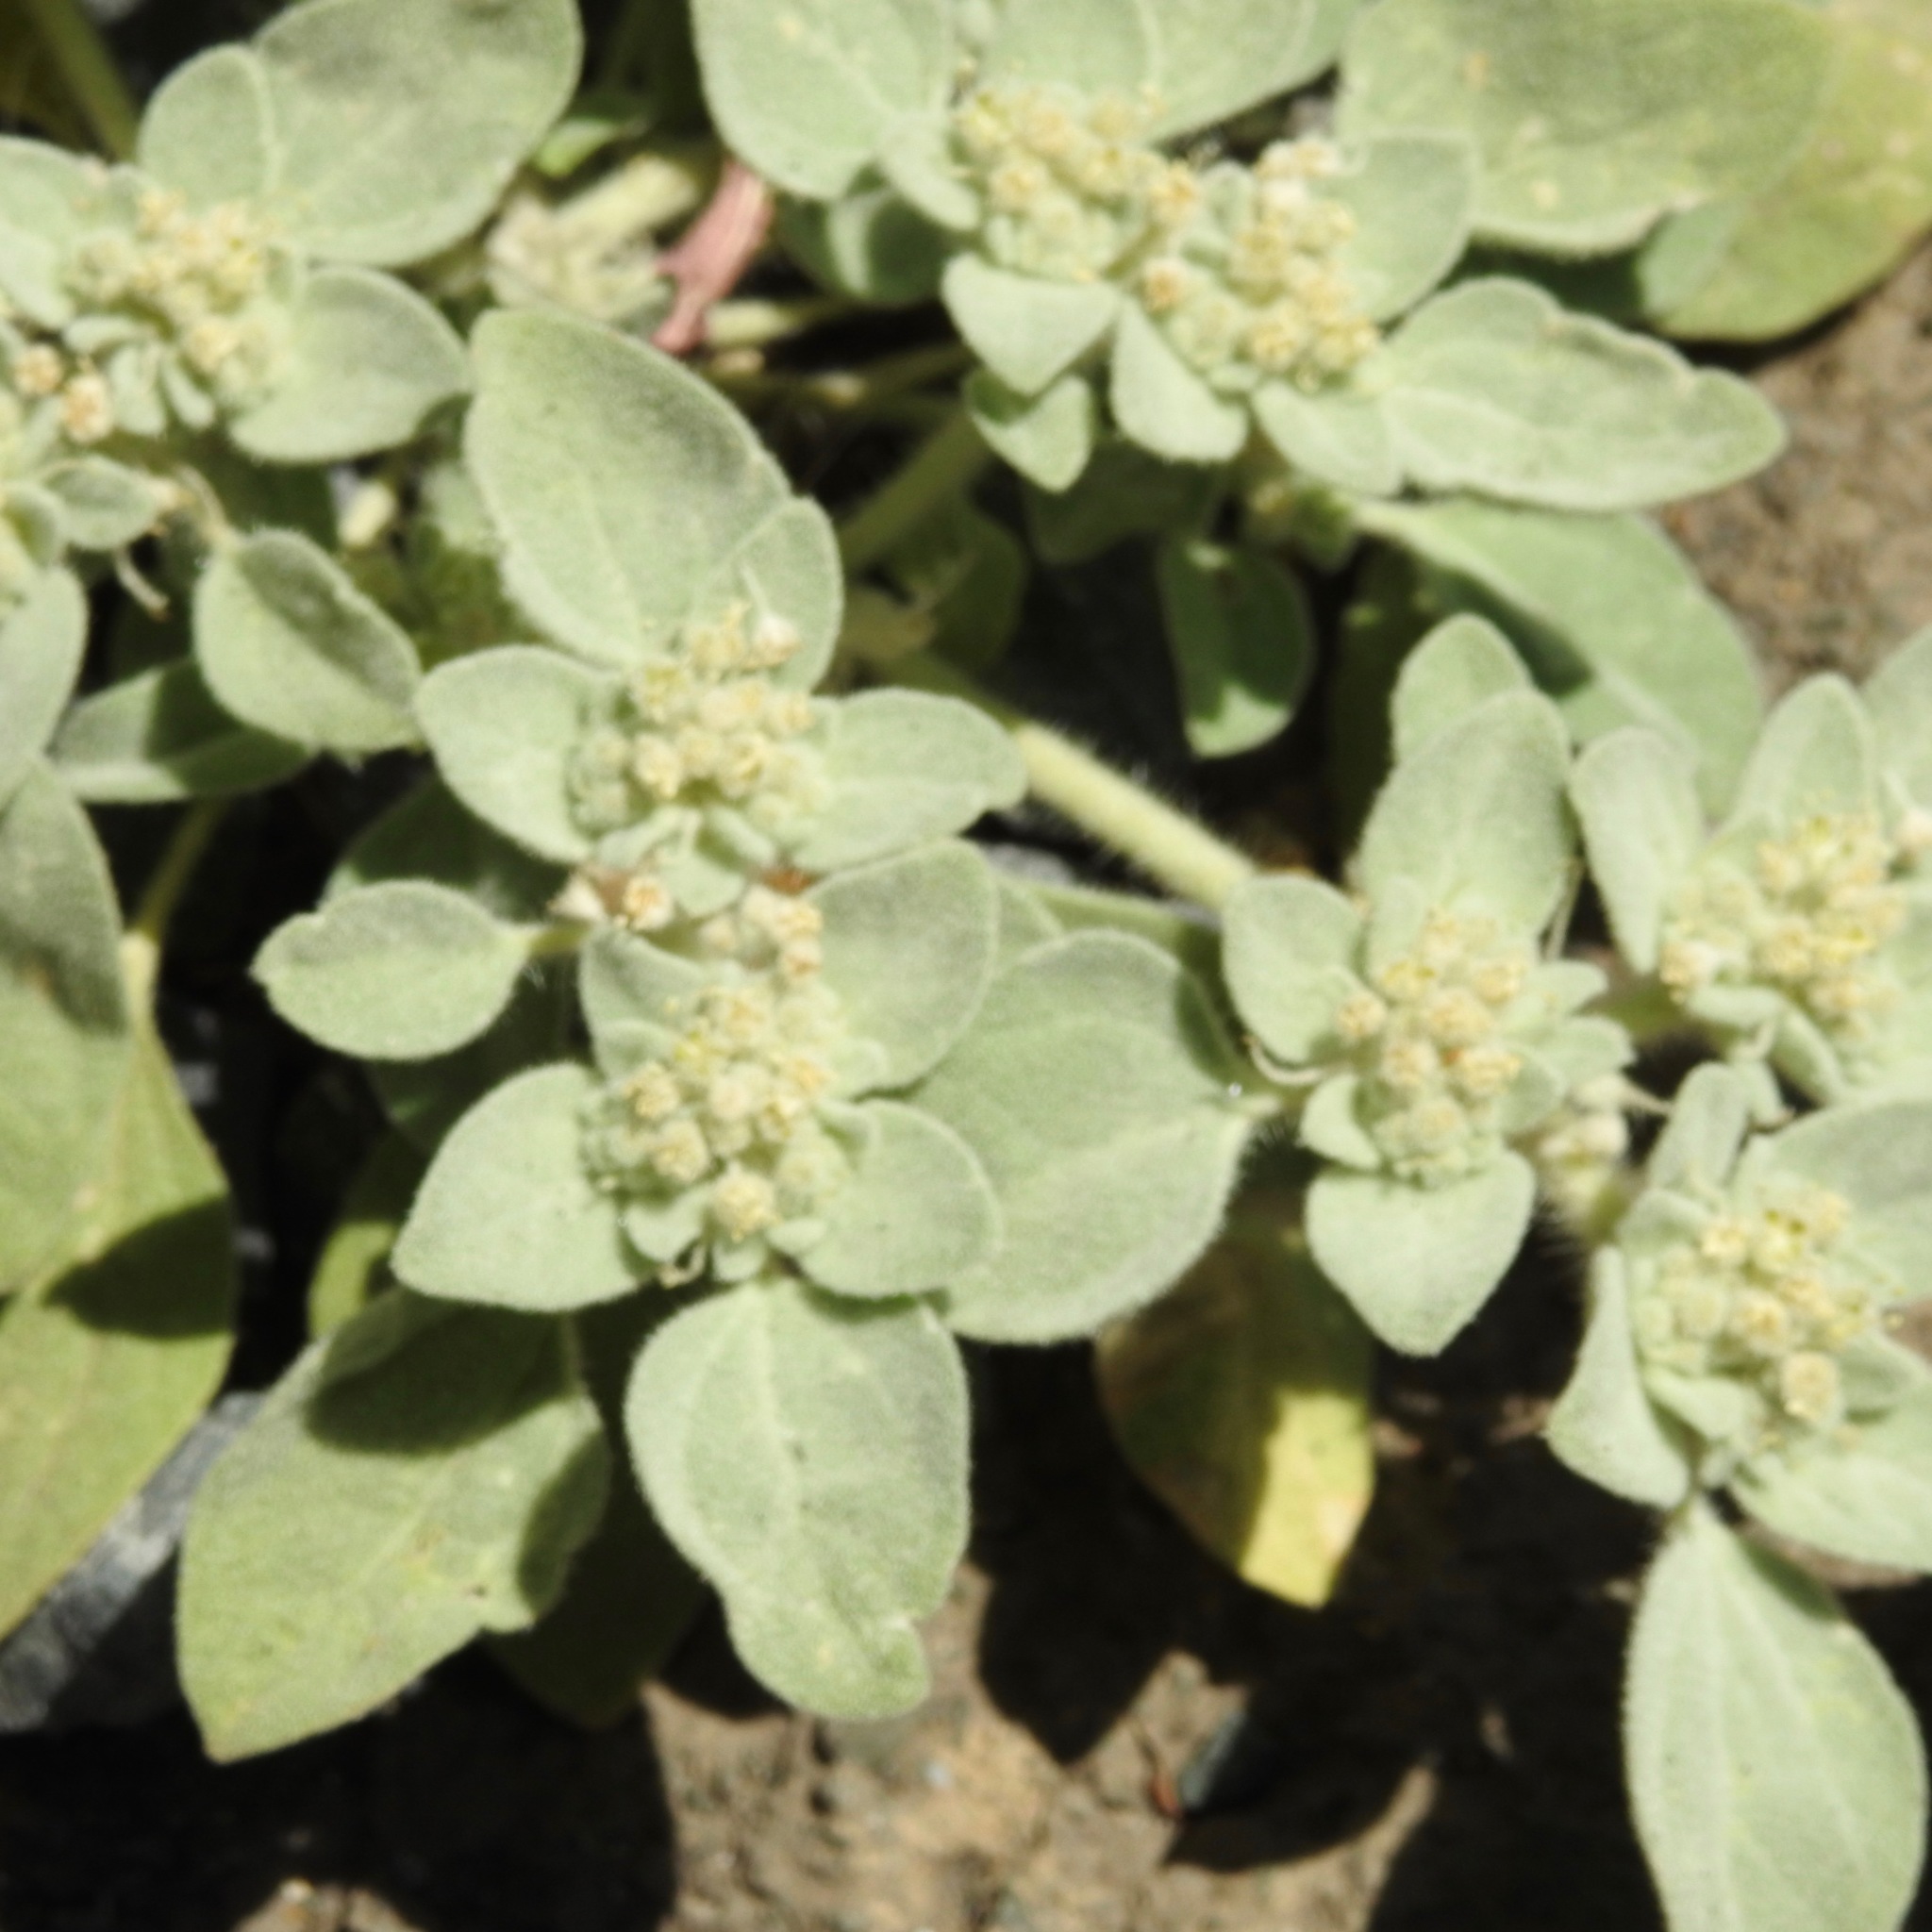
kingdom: Plantae
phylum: Tracheophyta
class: Magnoliopsida
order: Malpighiales
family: Euphorbiaceae
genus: Croton
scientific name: Croton setiger
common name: Dove weed
